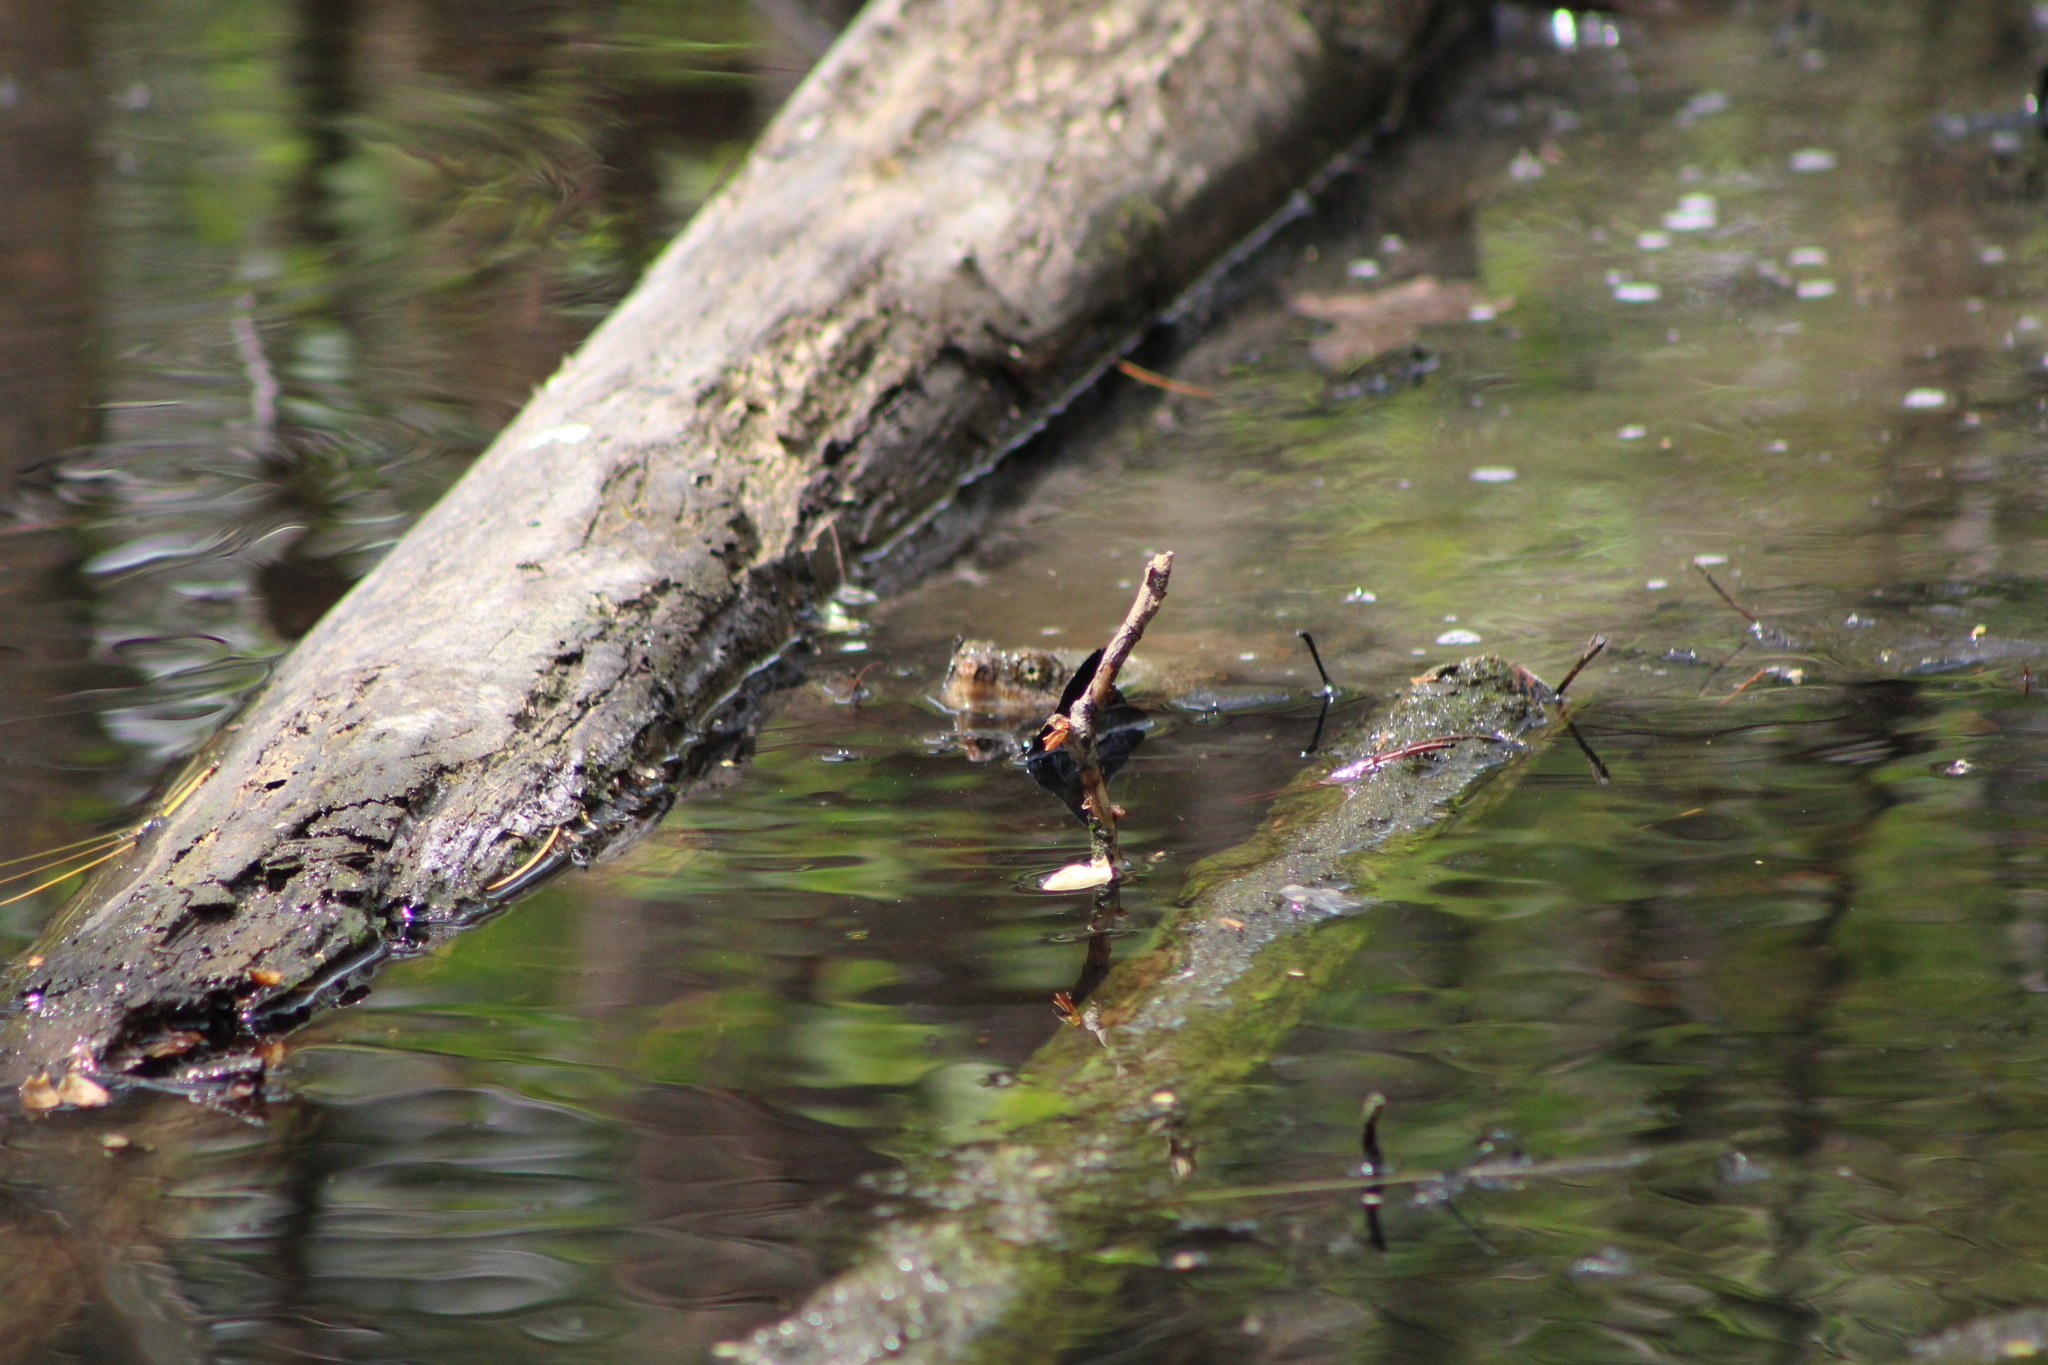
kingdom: Animalia
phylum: Chordata
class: Testudines
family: Chelydridae
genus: Chelydra
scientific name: Chelydra serpentina
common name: Common snapping turtle
